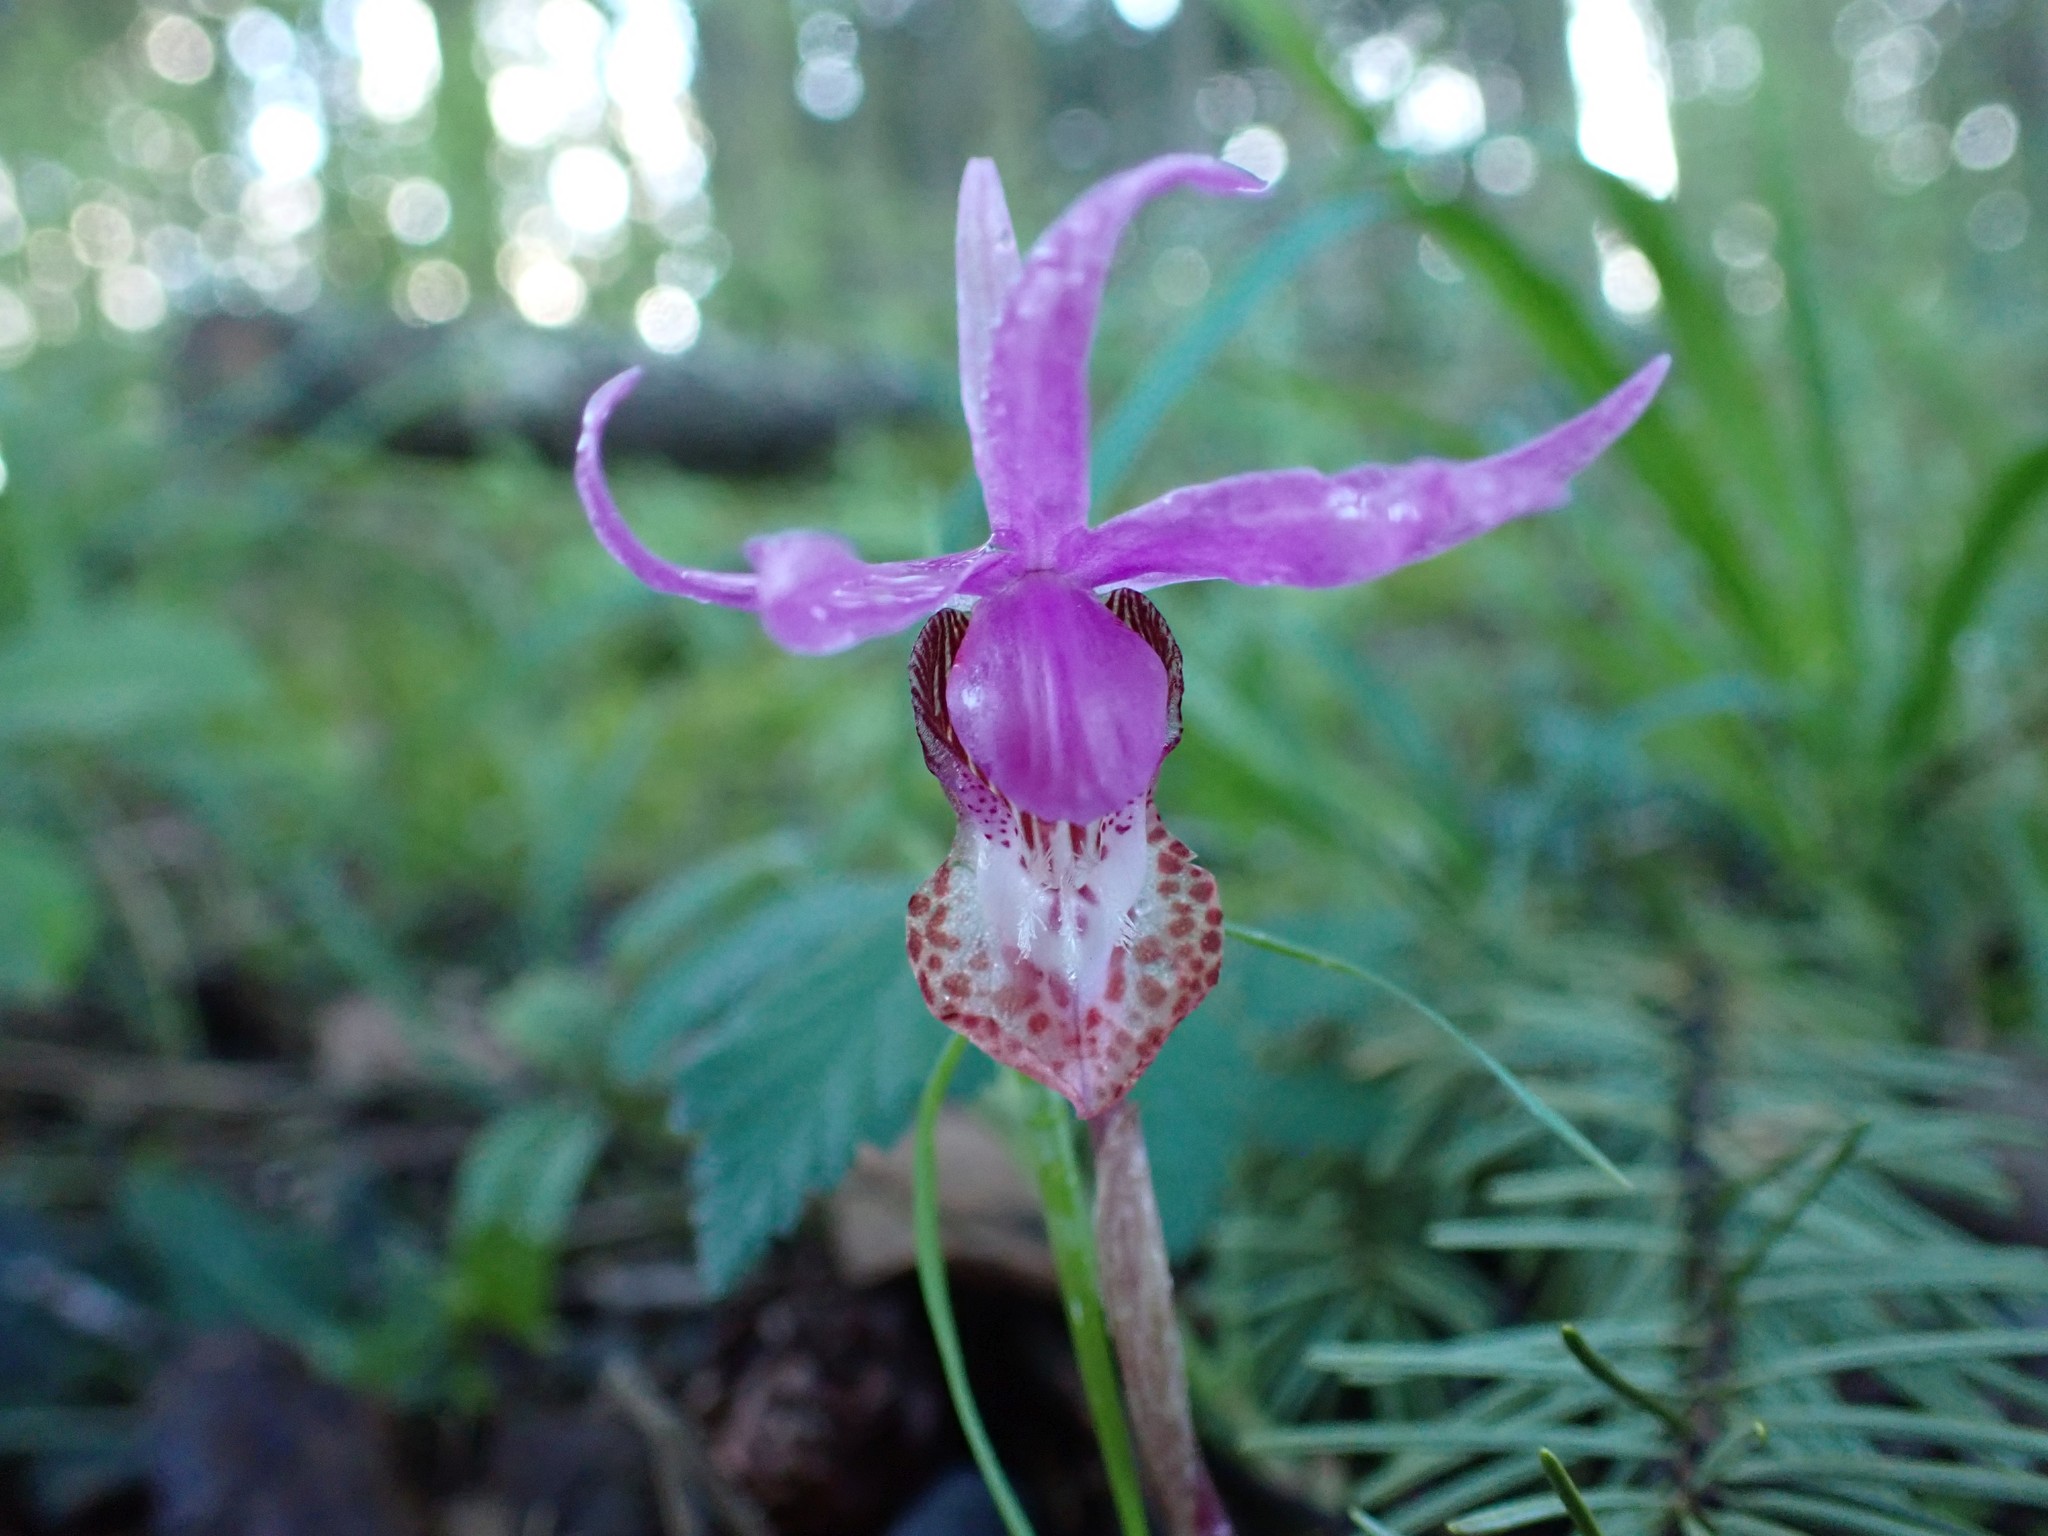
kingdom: Plantae
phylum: Tracheophyta
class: Liliopsida
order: Asparagales
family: Orchidaceae
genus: Calypso
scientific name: Calypso bulbosa
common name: Calypso
